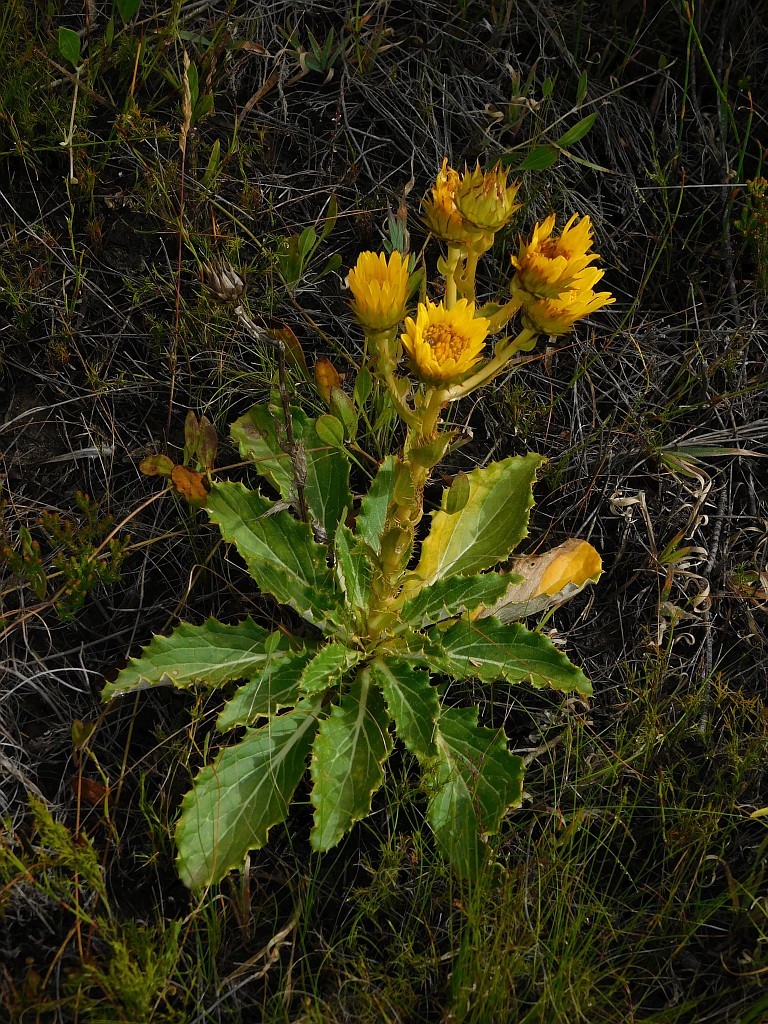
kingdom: Plantae
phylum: Tracheophyta
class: Magnoliopsida
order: Asterales
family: Asteraceae
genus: Berkheya
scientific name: Berkheya armata
